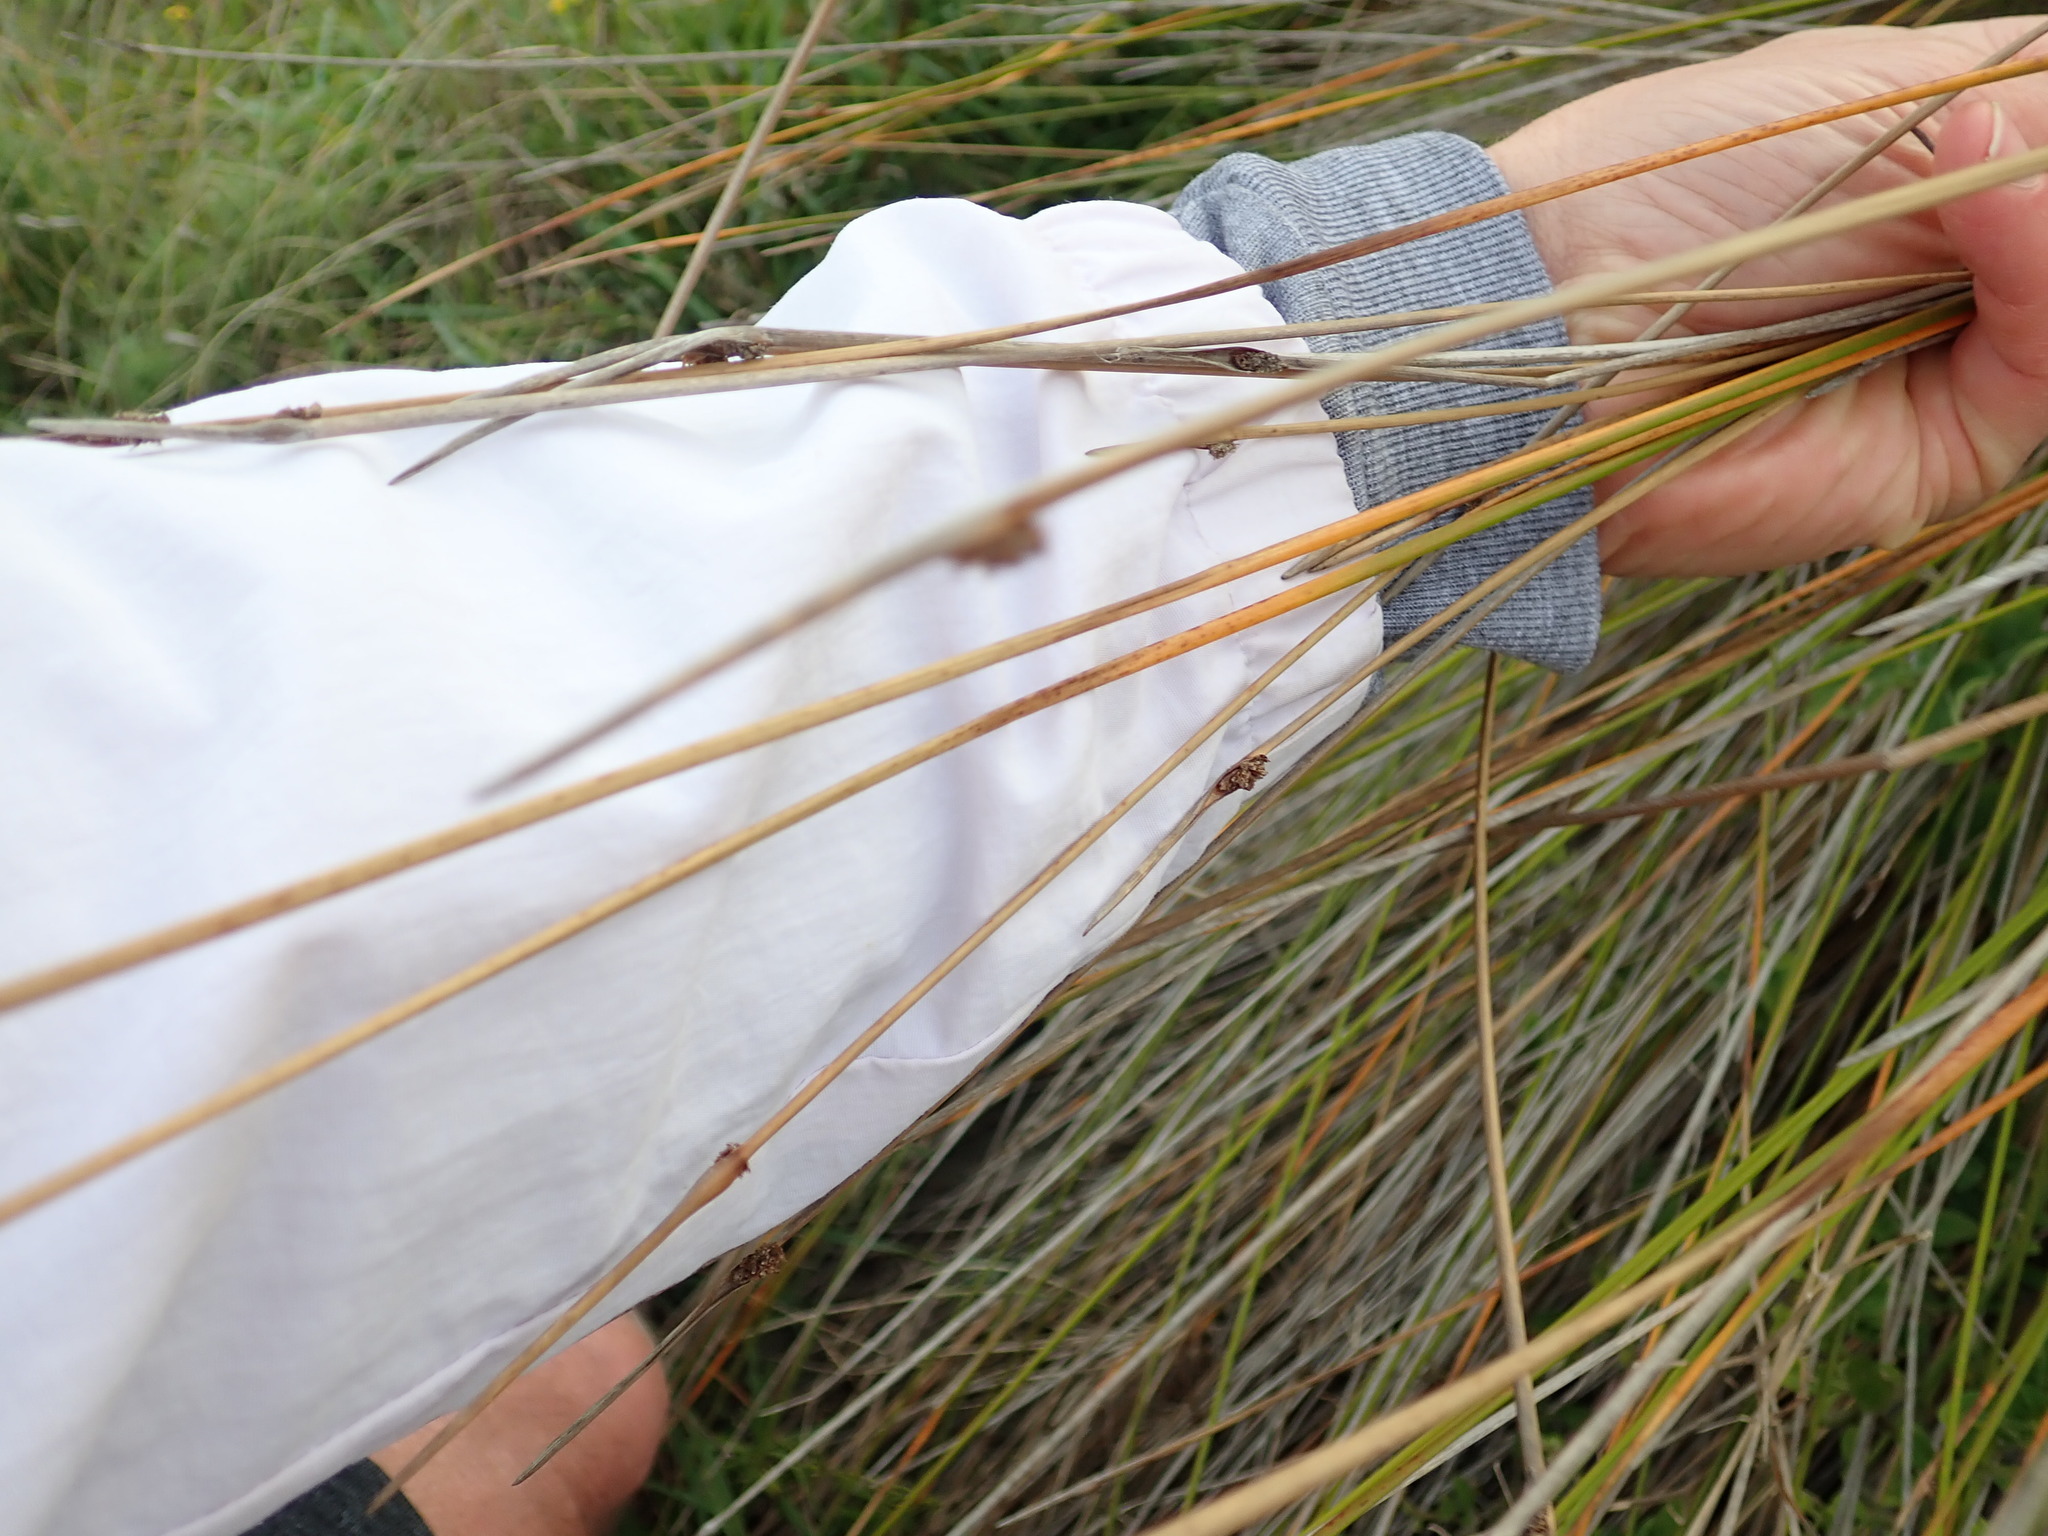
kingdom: Plantae
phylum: Tracheophyta
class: Liliopsida
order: Poales
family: Cyperaceae
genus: Ficinia
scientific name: Ficinia nodosa
